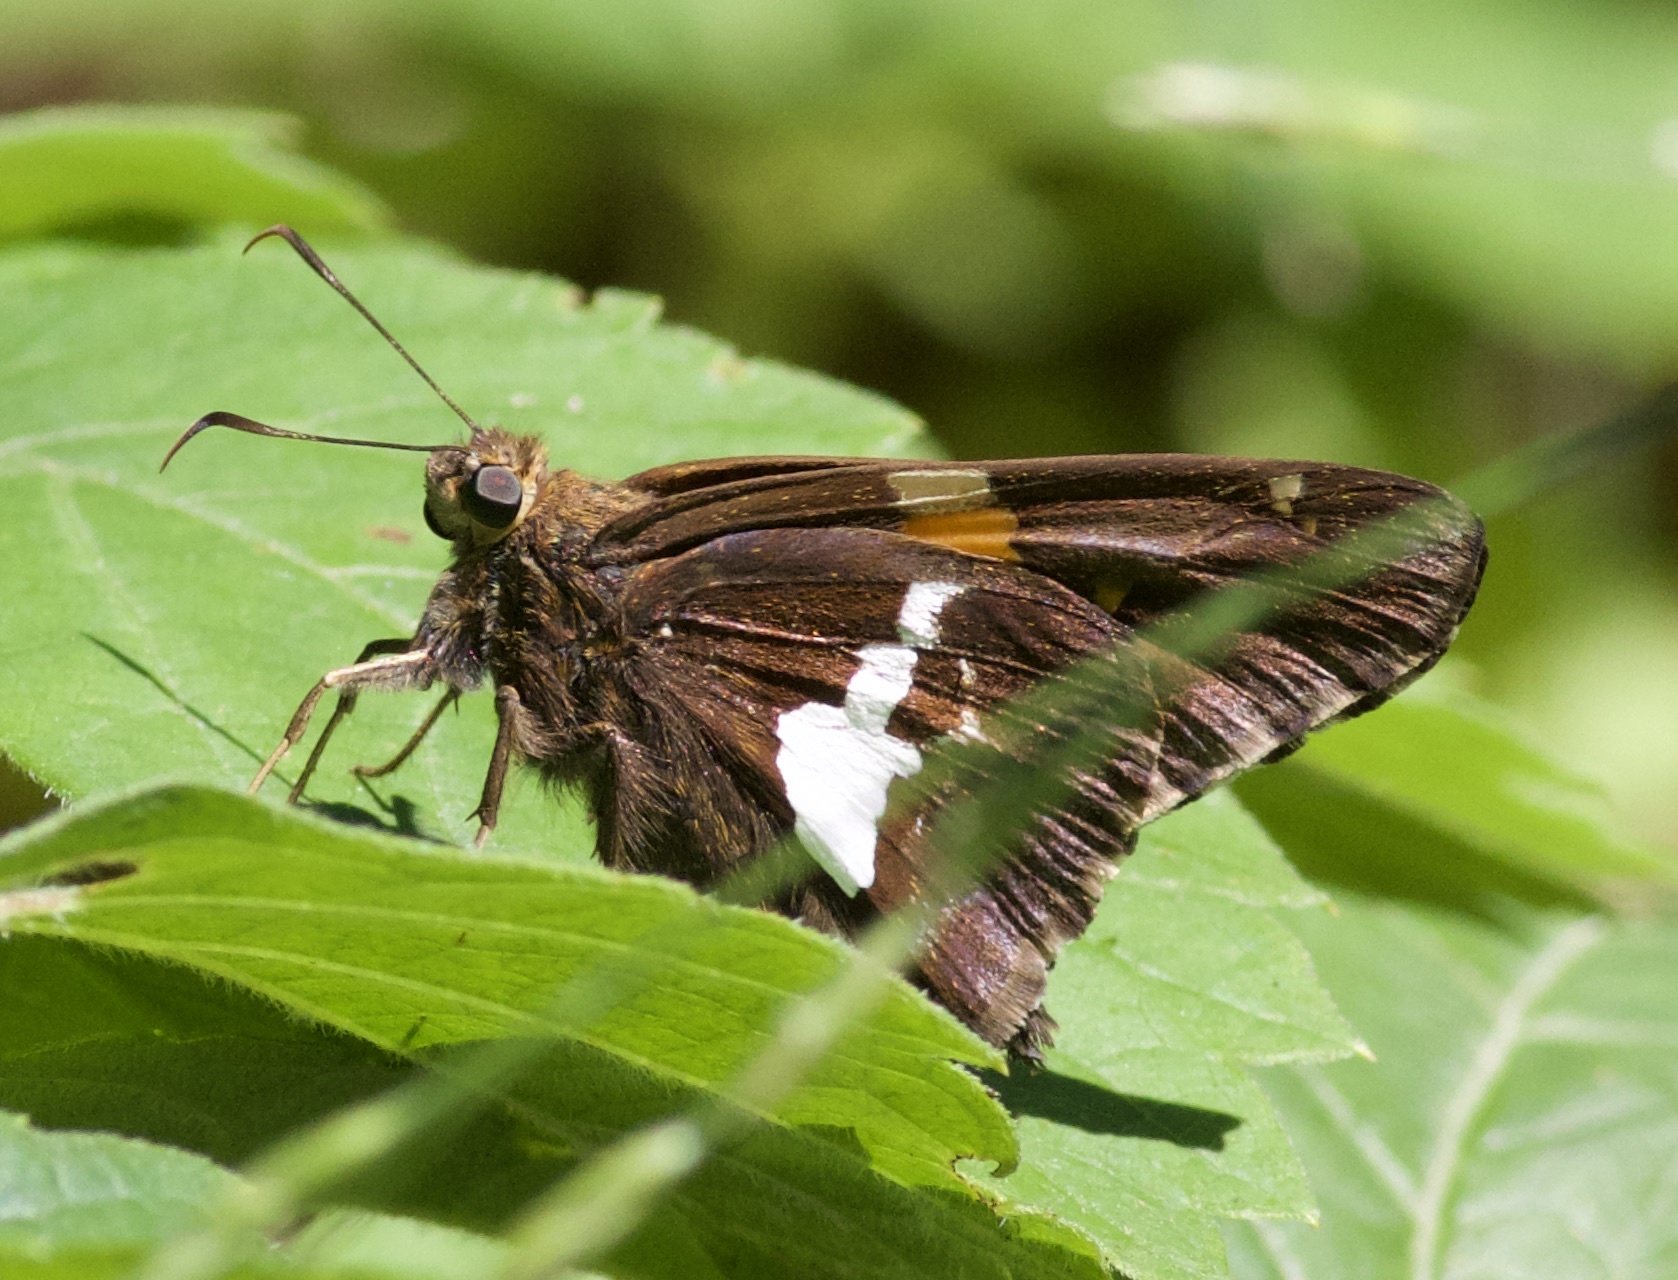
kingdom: Animalia
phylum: Arthropoda
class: Insecta
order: Lepidoptera
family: Hesperiidae
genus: Epargyreus
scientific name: Epargyreus clarus
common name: Silver-spotted skipper
